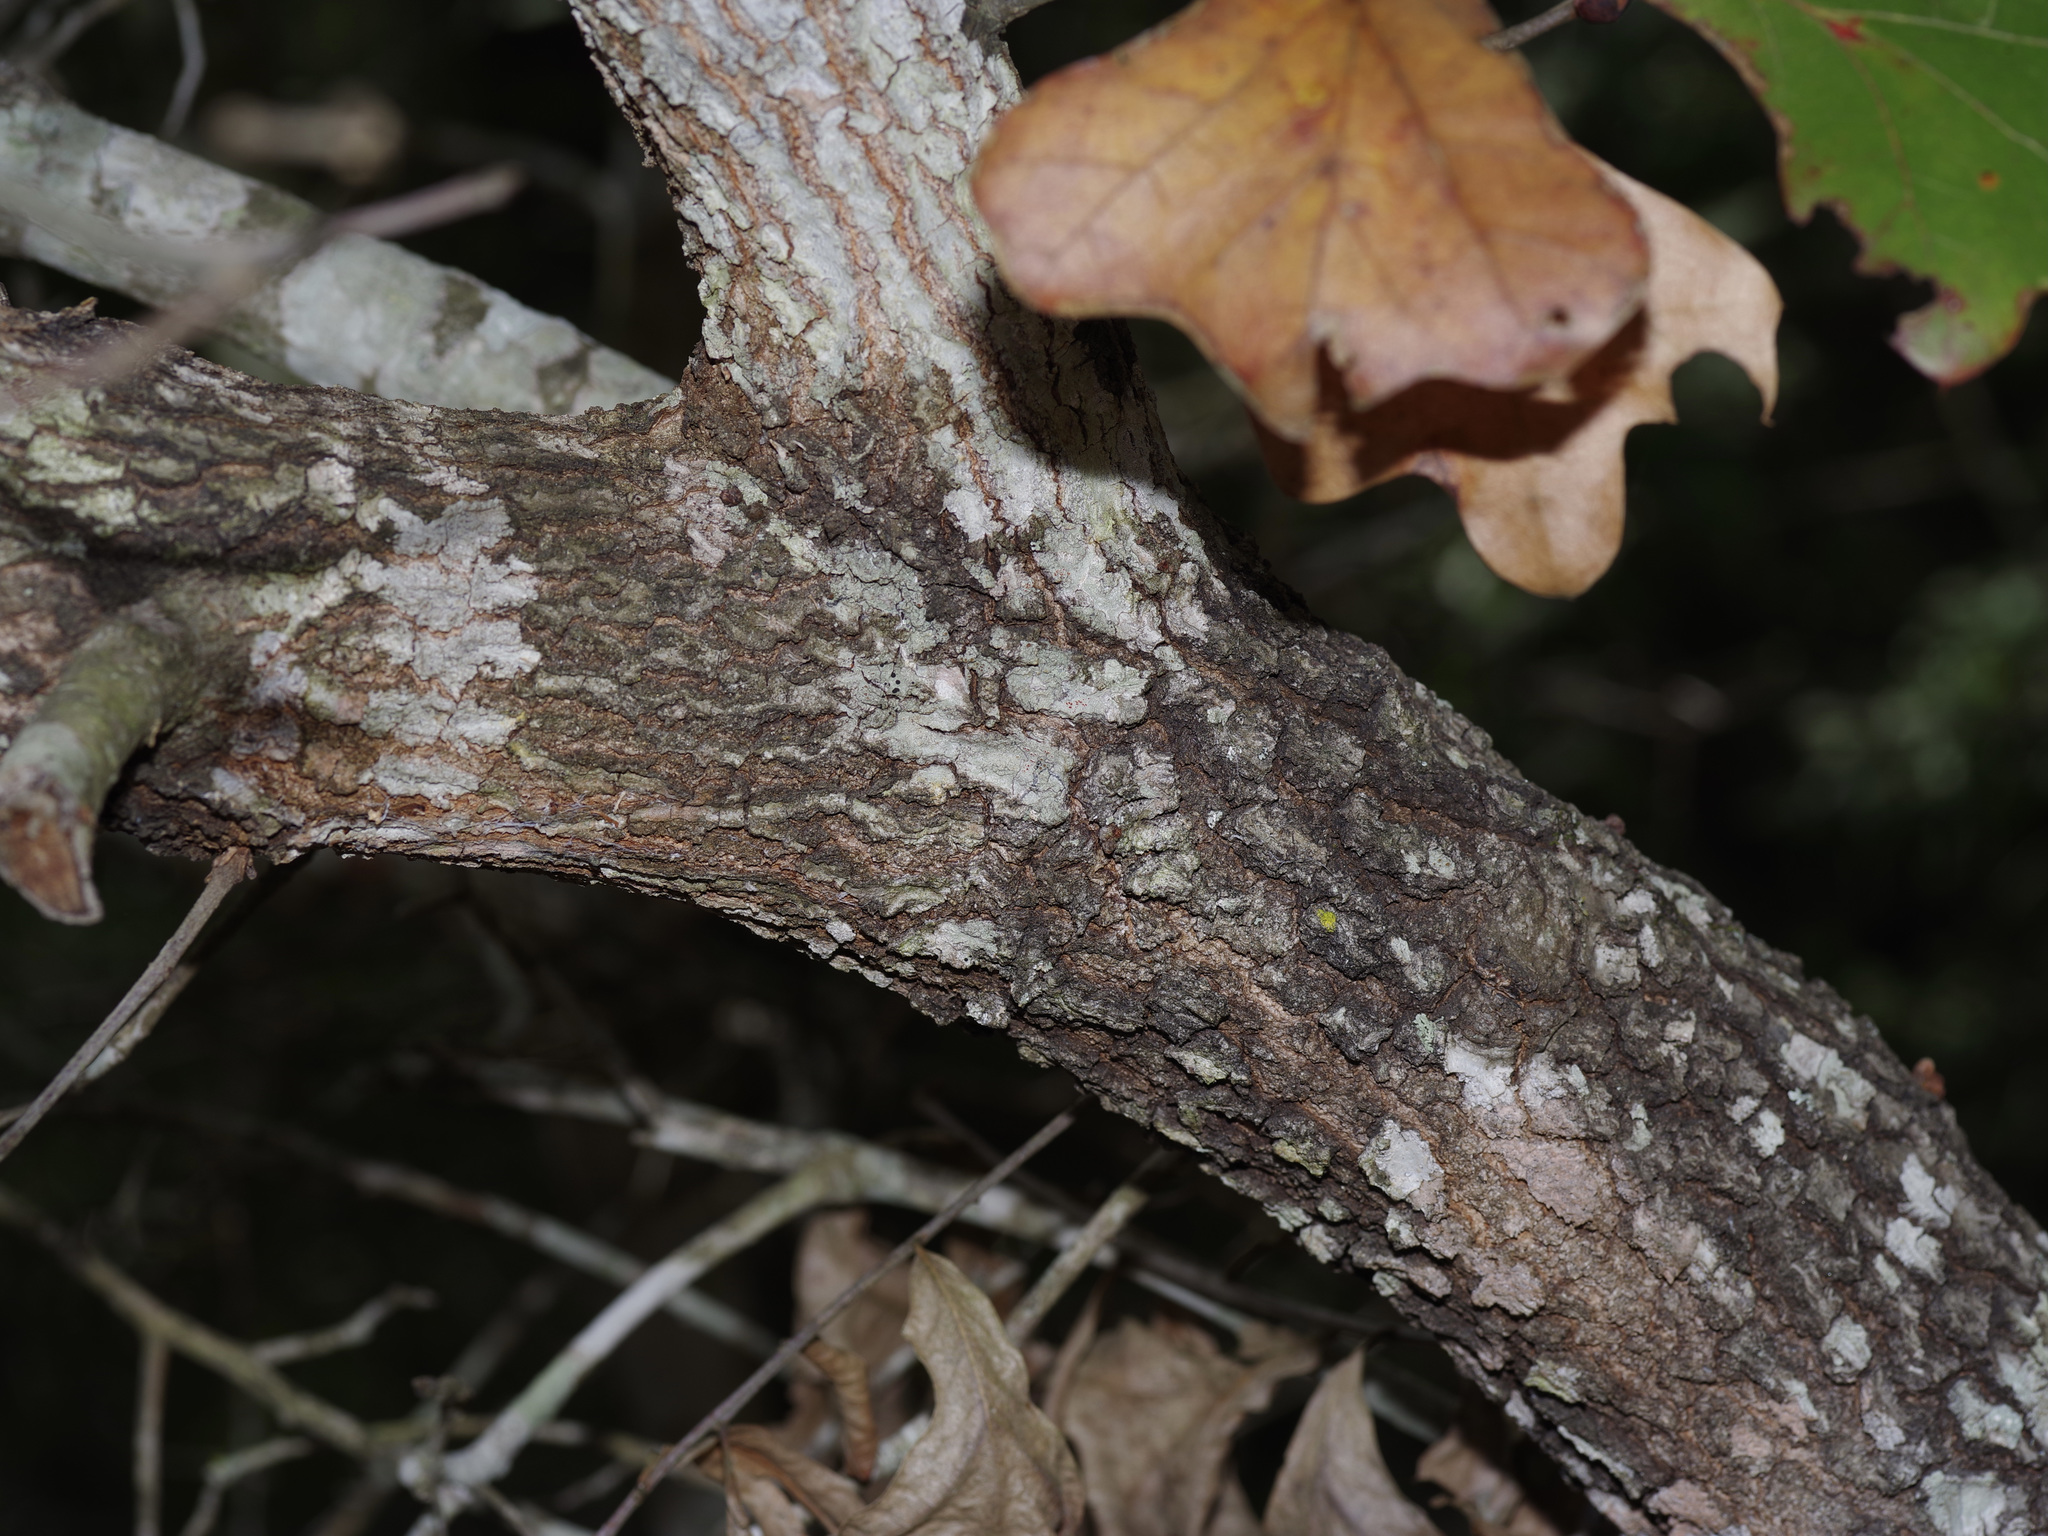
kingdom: Plantae
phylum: Tracheophyta
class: Magnoliopsida
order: Fagales
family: Fagaceae
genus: Quercus
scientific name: Quercus marilandica
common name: Blackjack oak
